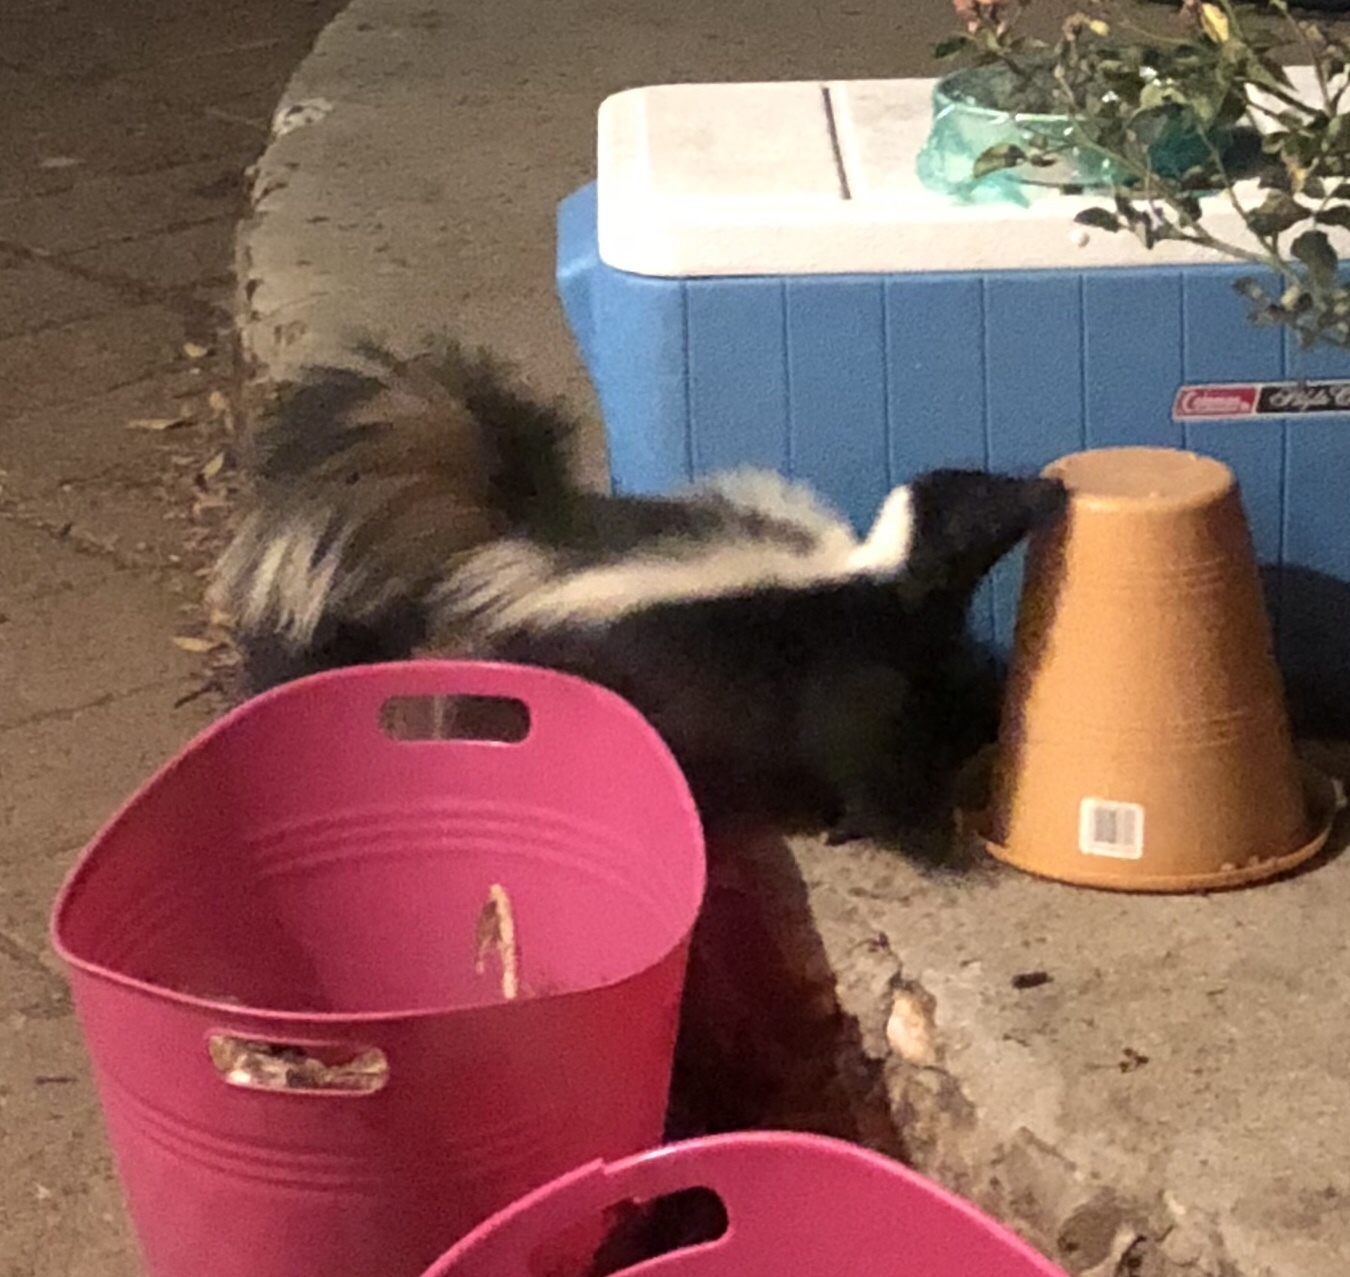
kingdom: Animalia
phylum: Chordata
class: Mammalia
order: Carnivora
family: Mephitidae
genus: Mephitis
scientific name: Mephitis mephitis
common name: Striped skunk
